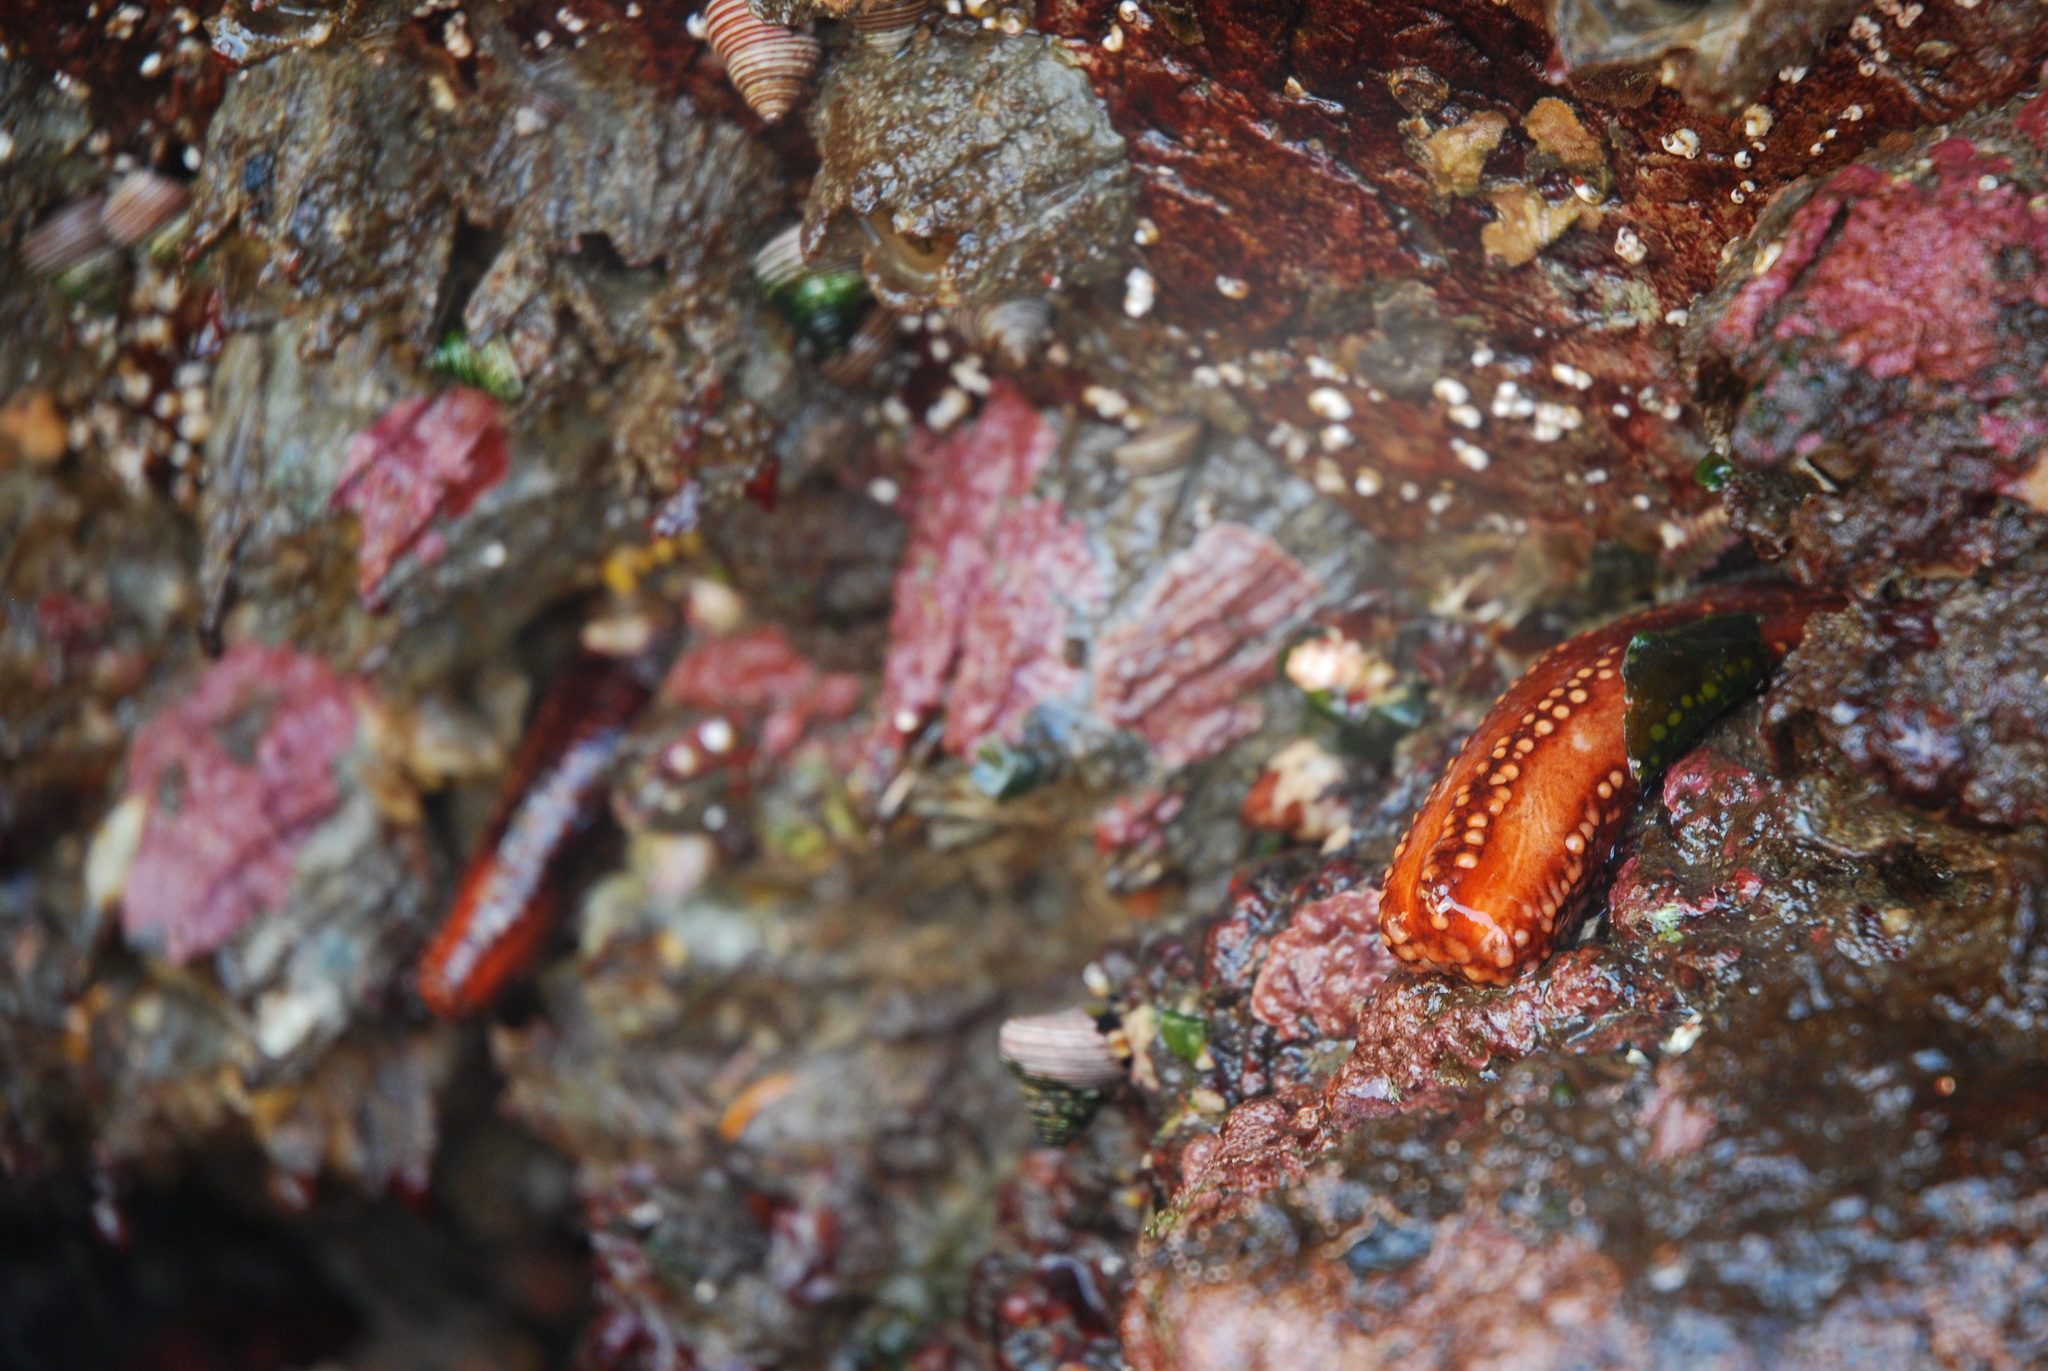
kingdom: Animalia
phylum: Echinodermata
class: Holothuroidea
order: Dendrochirotida
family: Cucumariidae
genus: Cucumaria
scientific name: Cucumaria miniata
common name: Orange sea cucumber
